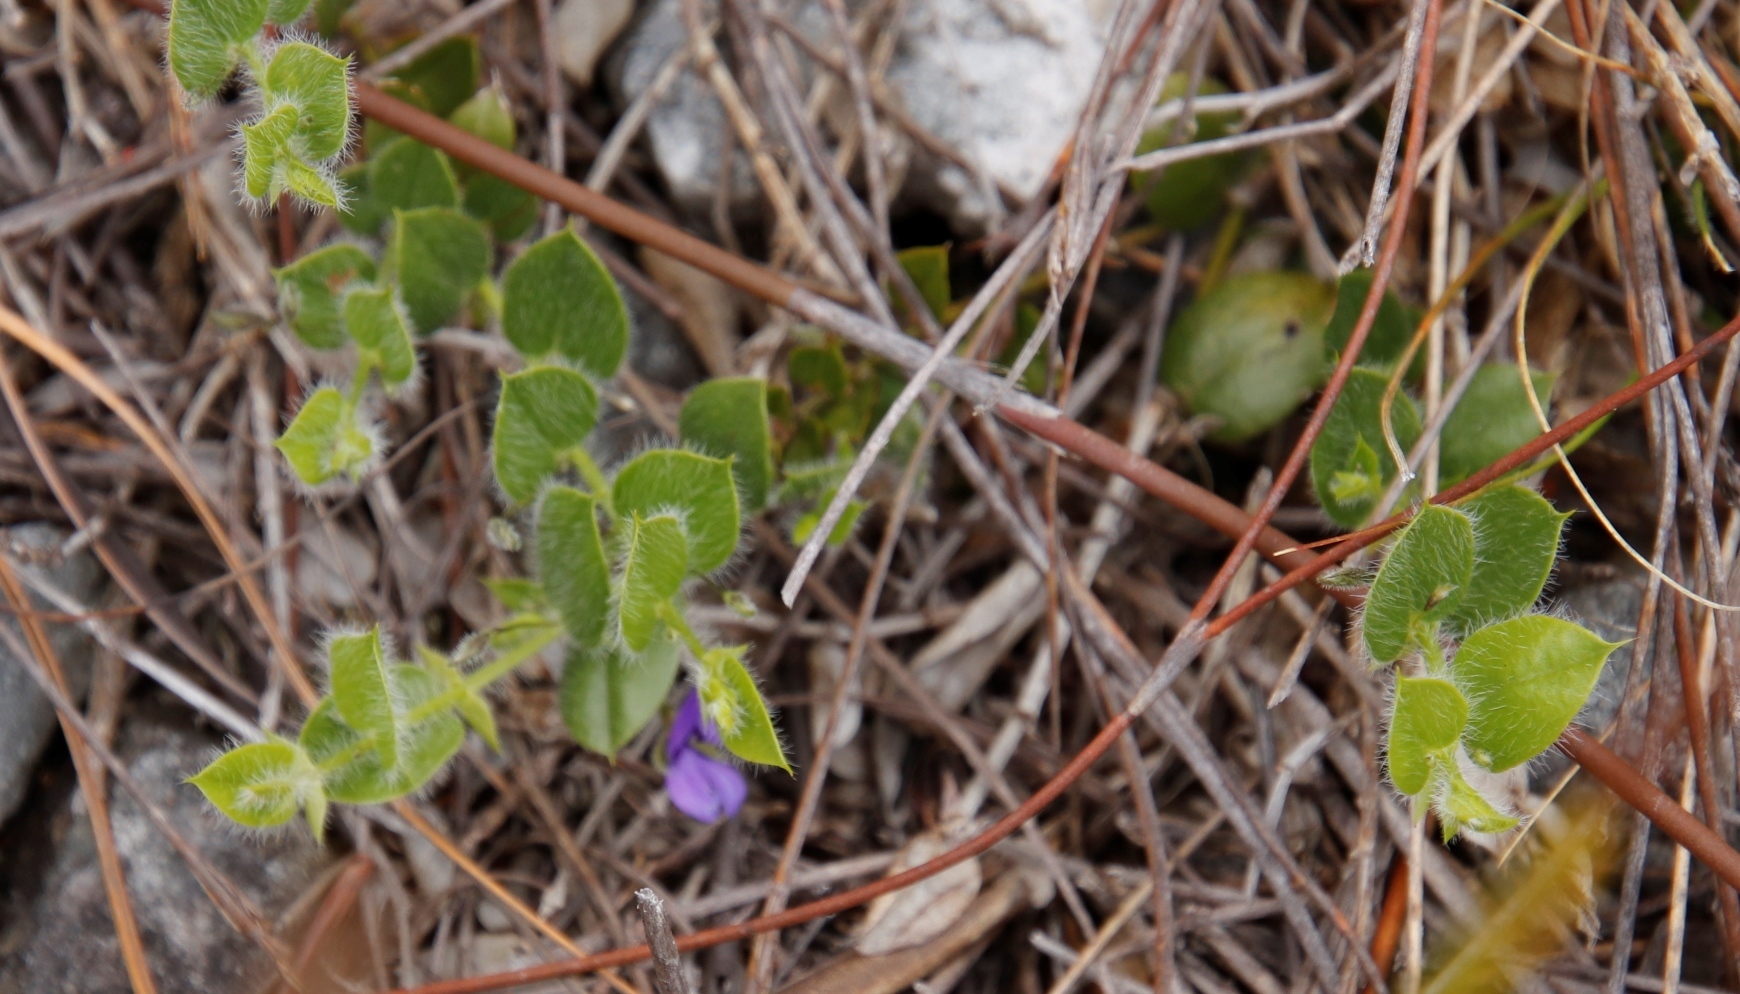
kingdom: Plantae
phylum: Tracheophyta
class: Magnoliopsida
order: Fabales
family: Fabaceae
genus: Psoralea
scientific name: Psoralea asarina
